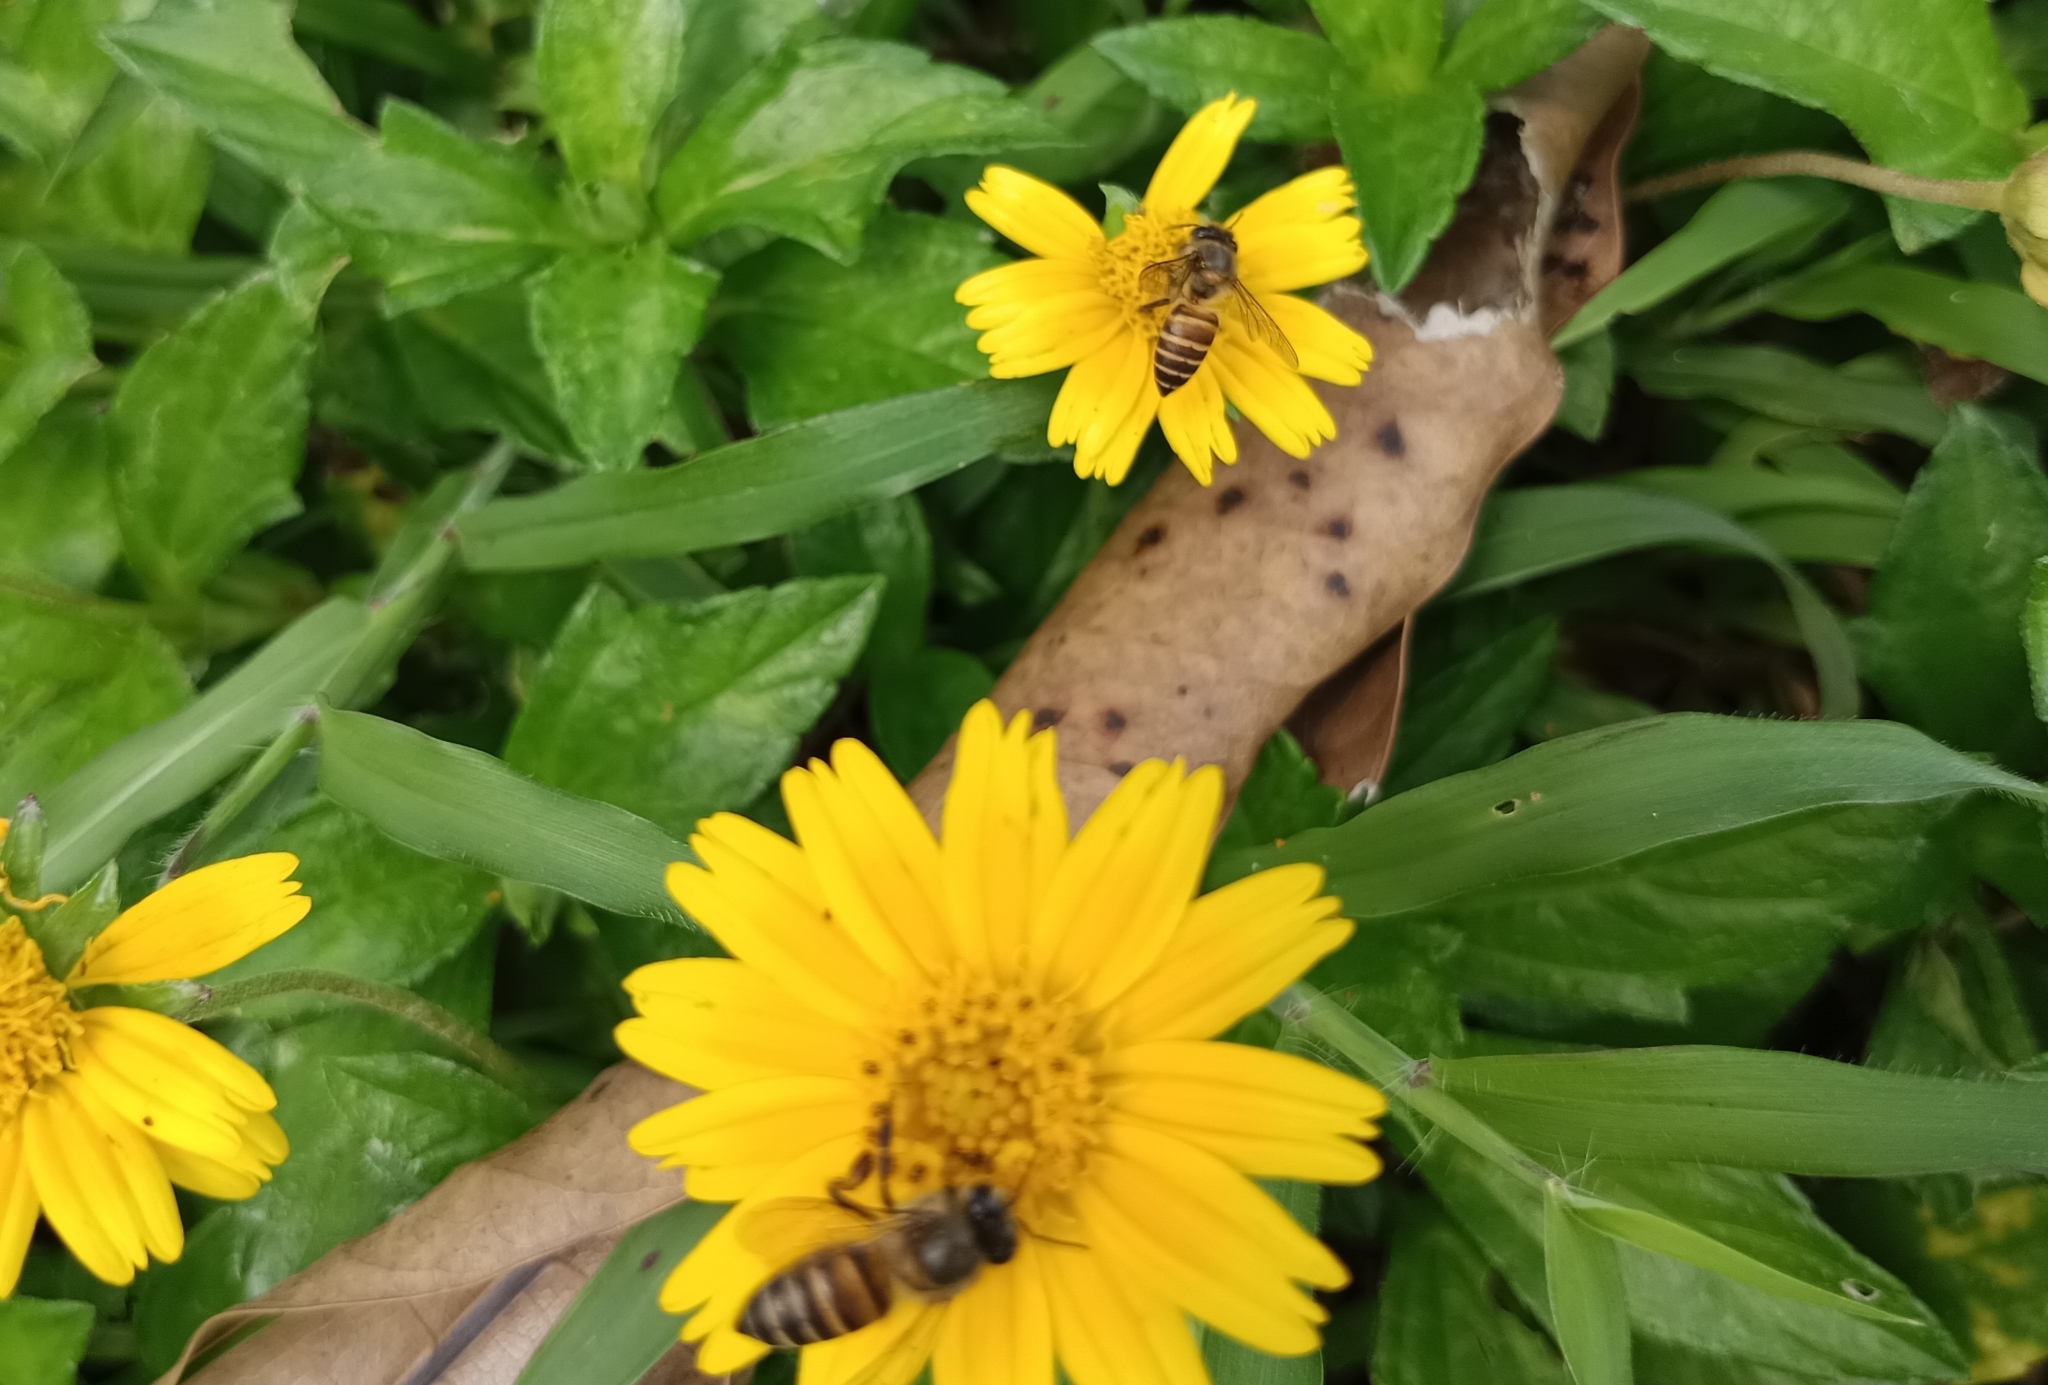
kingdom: Animalia
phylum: Arthropoda
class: Insecta
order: Hymenoptera
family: Apidae
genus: Apis
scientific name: Apis cerana
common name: Honey bee
